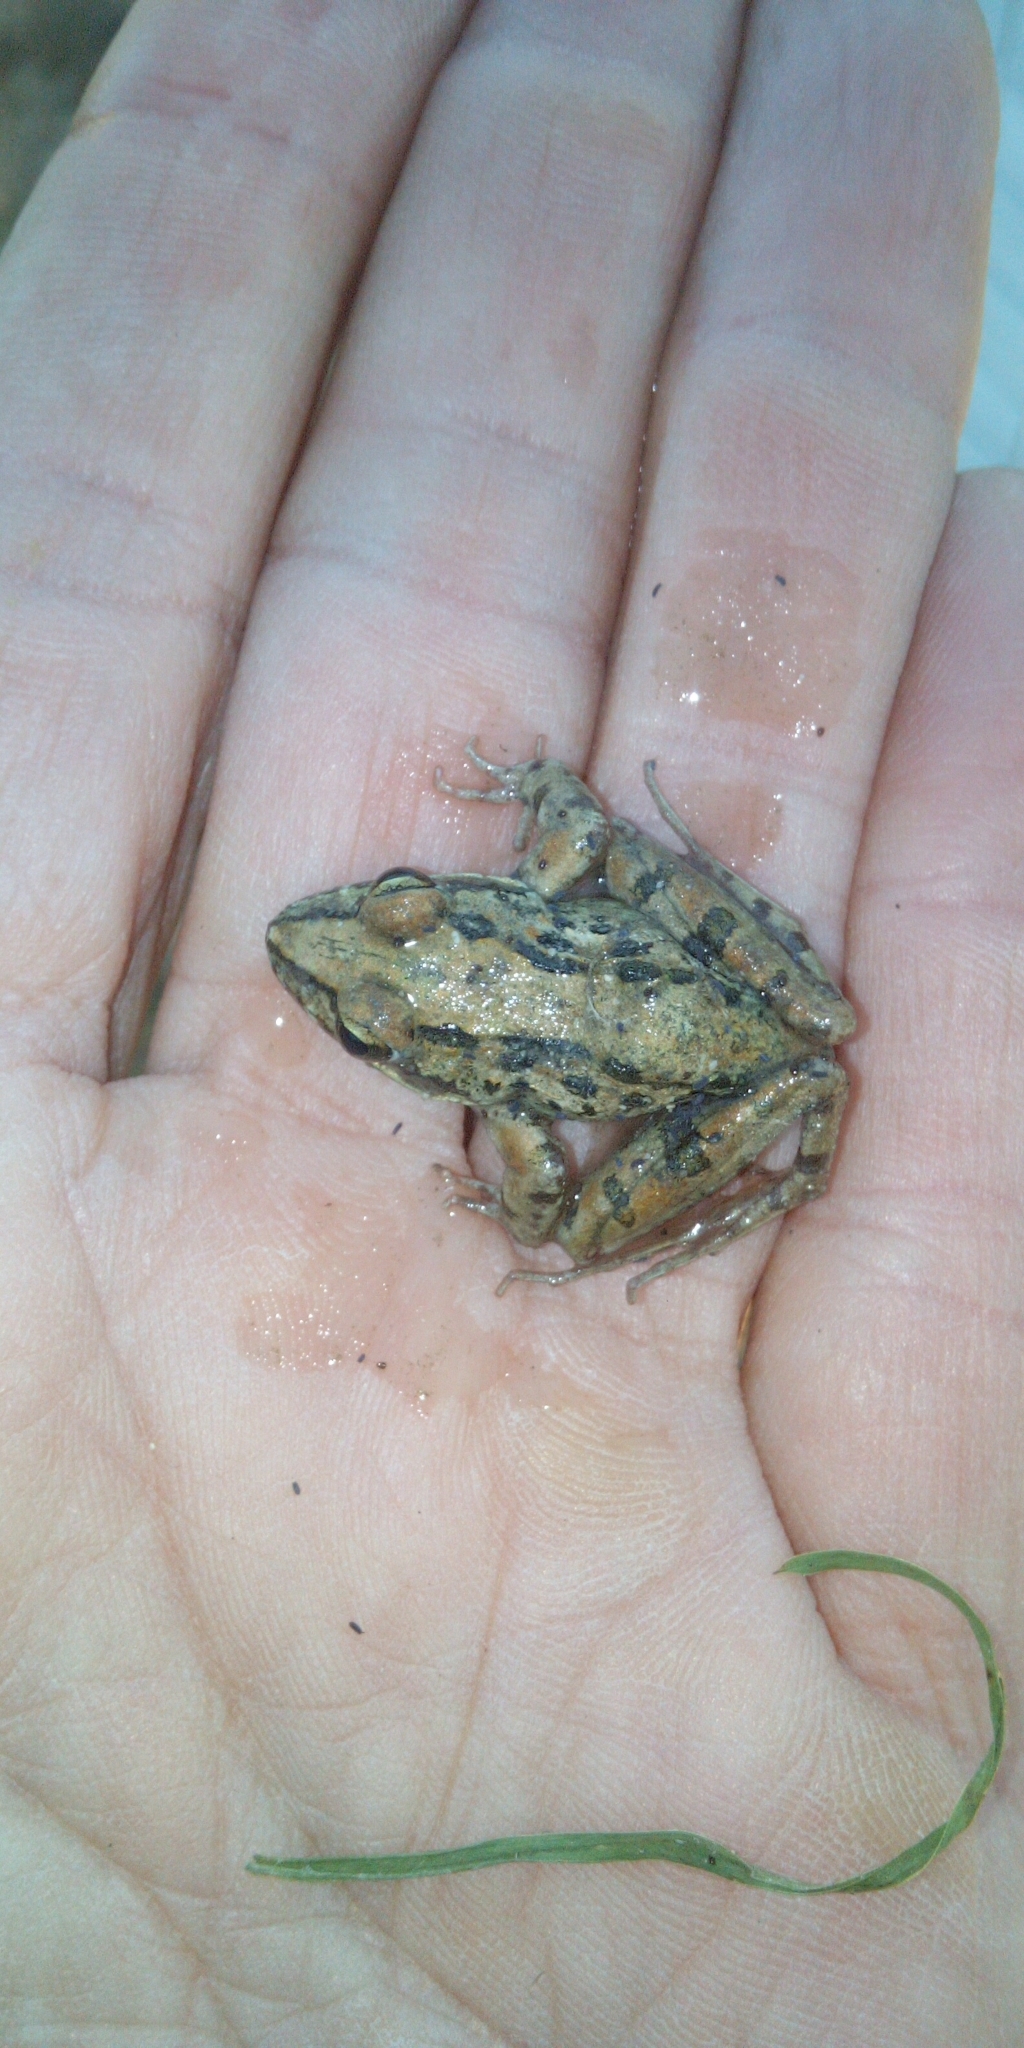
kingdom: Animalia
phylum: Chordata
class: Amphibia
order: Anura
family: Pyxicephalidae
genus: Strongylopus
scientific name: Strongylopus grayii
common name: Gray's stream frog
